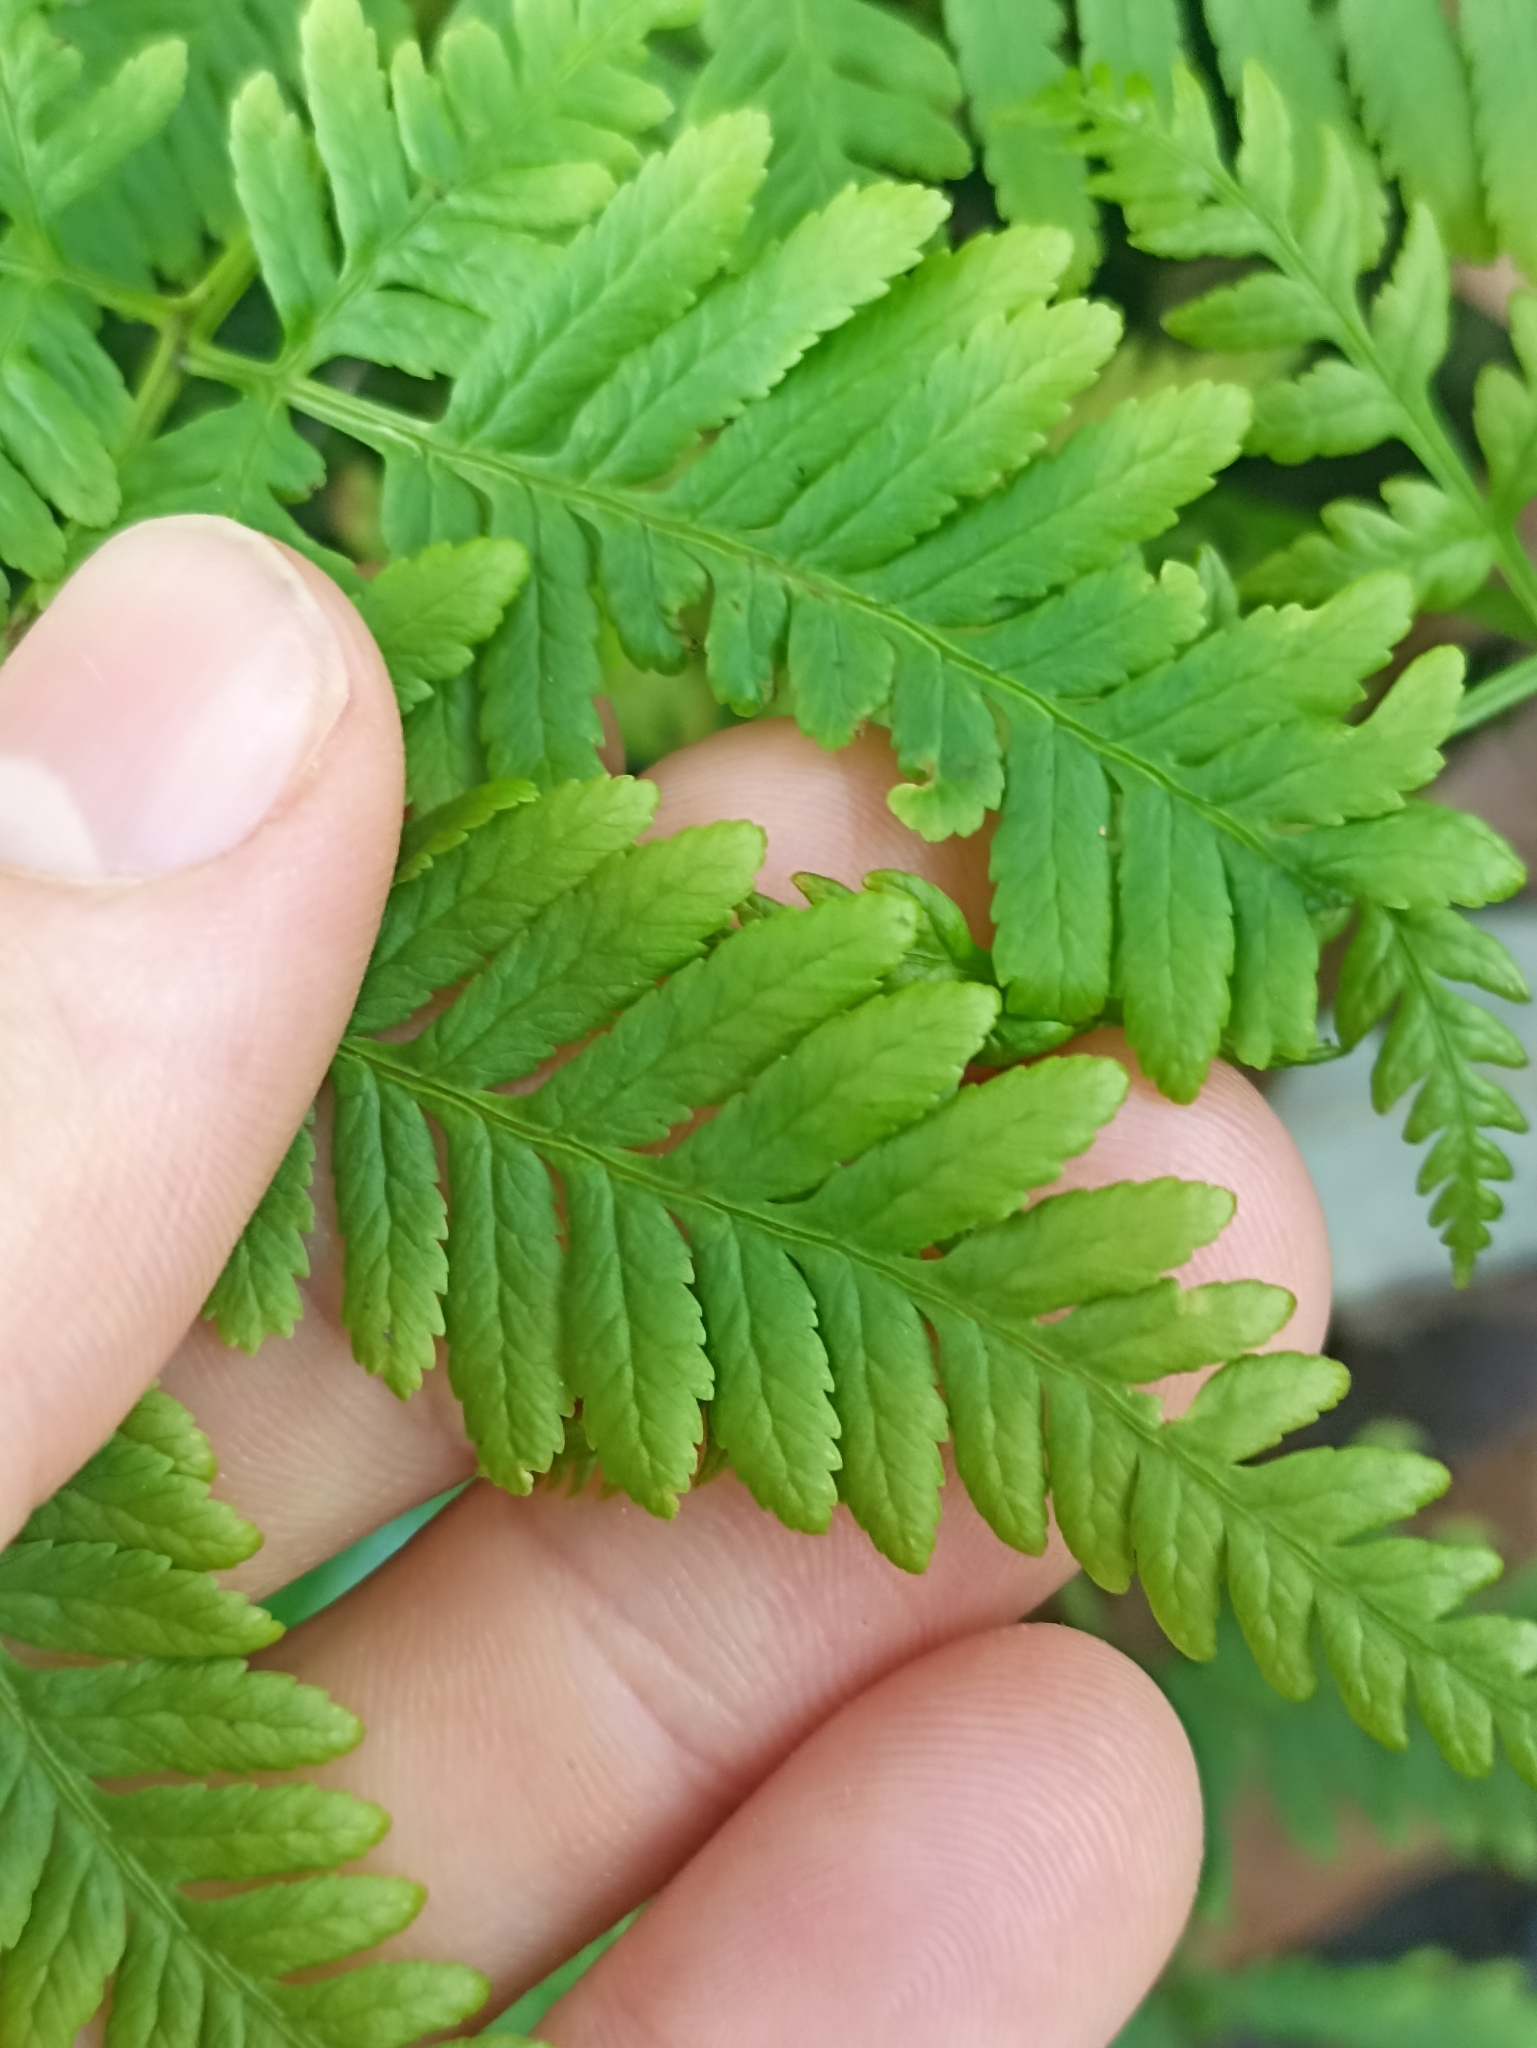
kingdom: Plantae
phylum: Tracheophyta
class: Polypodiopsida
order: Polypodiales
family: Pteridaceae
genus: Pteris
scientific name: Pteris tremula
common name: Australian brake
